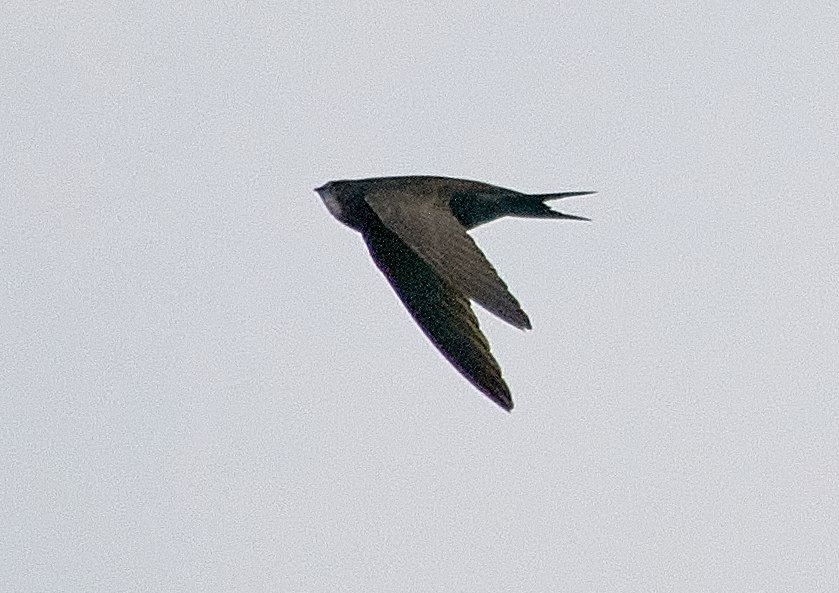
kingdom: Animalia
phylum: Chordata
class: Aves
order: Apodiformes
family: Apodidae
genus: Apus
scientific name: Apus apus
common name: Common swift
